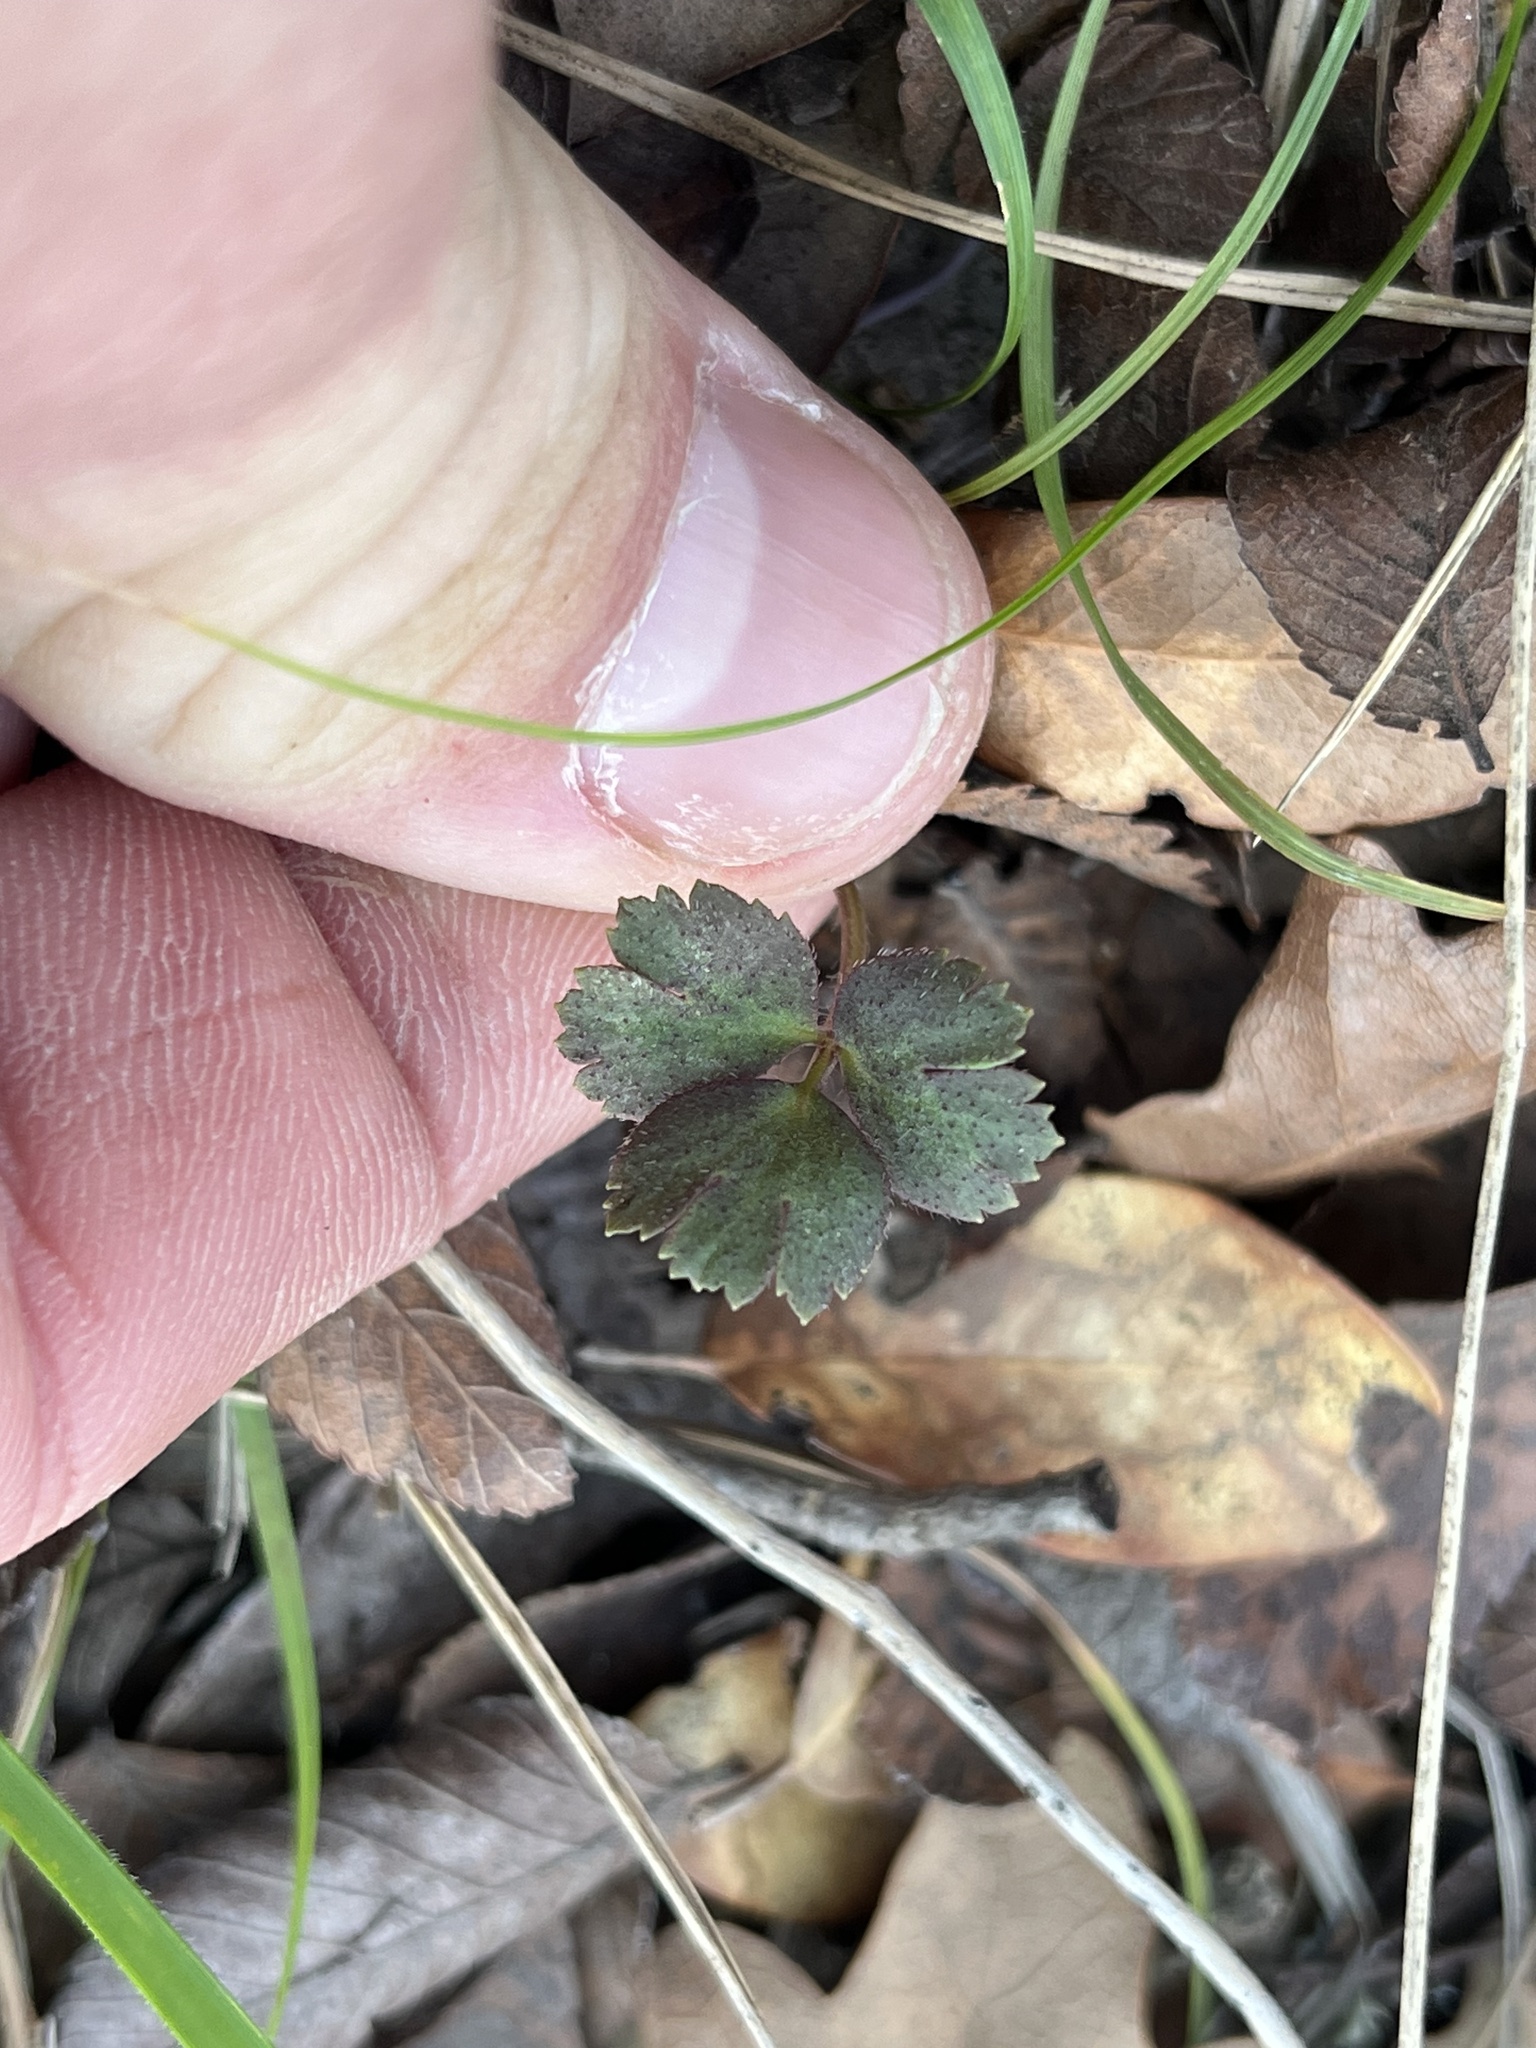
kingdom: Plantae
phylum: Tracheophyta
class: Magnoliopsida
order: Ranunculales
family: Ranunculaceae
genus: Anemone
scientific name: Anemone berlandieri
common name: Ten-petal anemone
